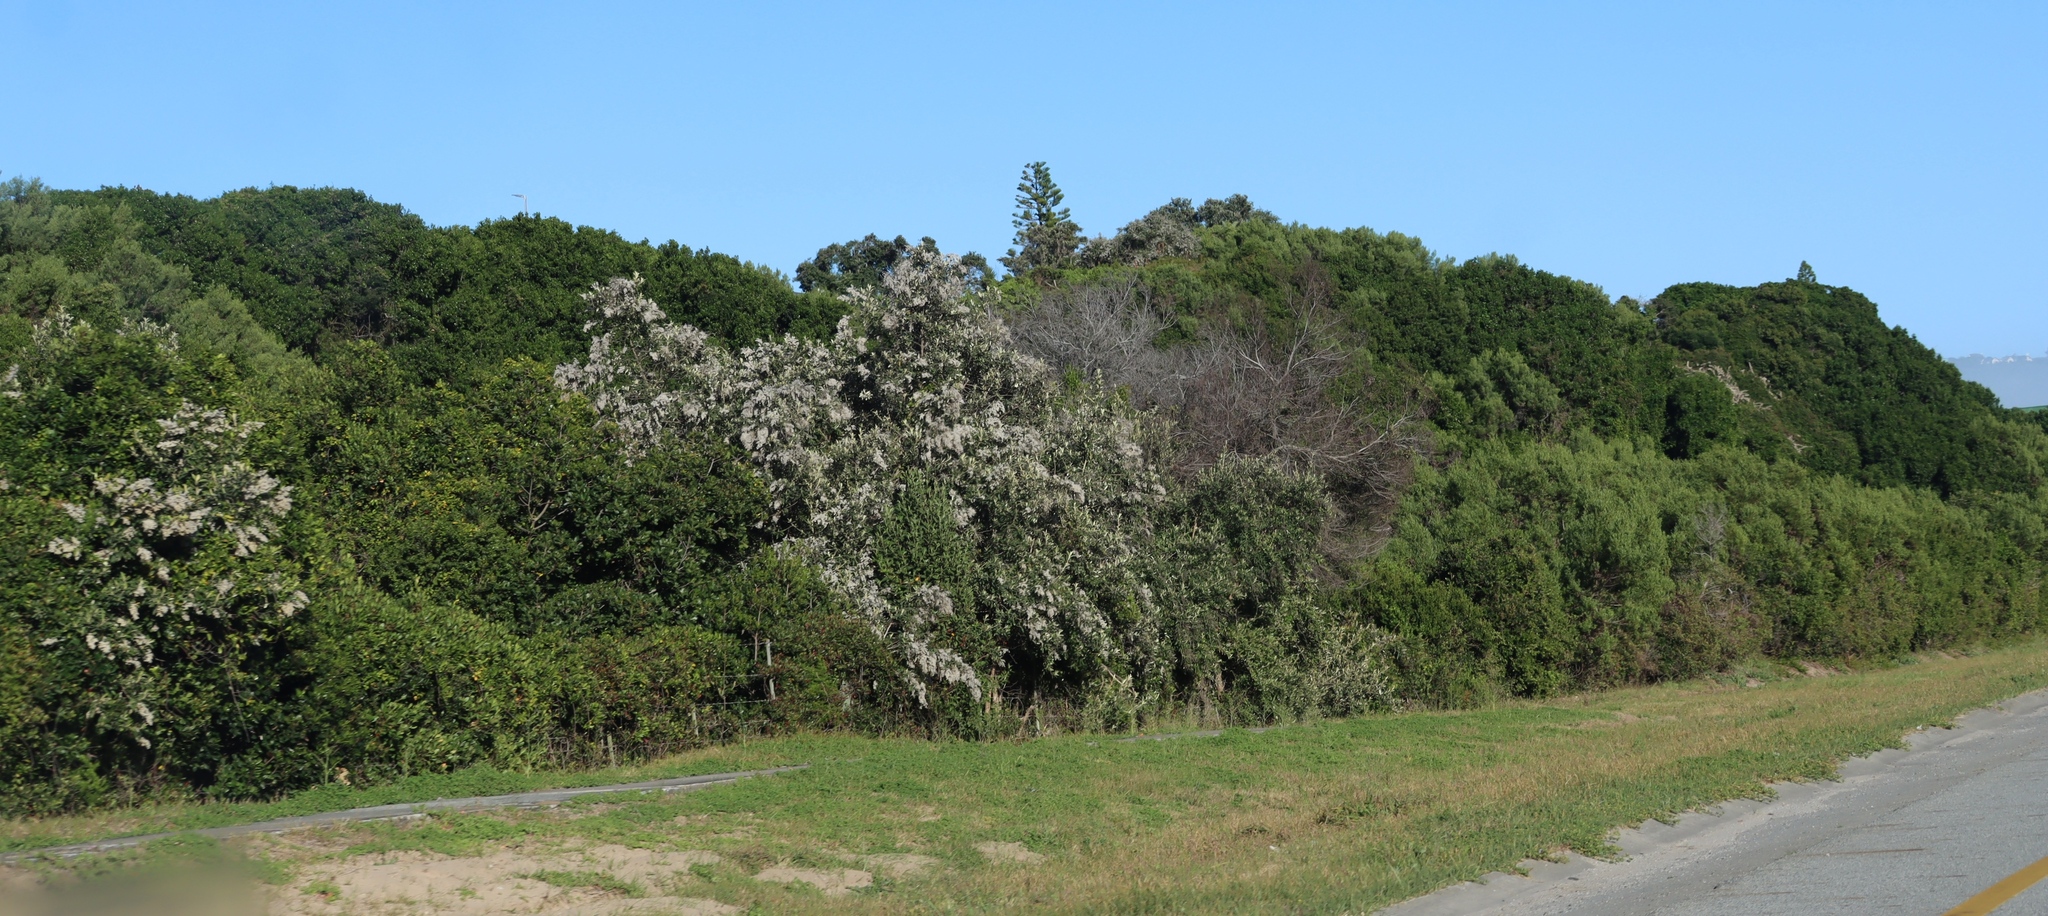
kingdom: Plantae
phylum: Tracheophyta
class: Magnoliopsida
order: Asterales
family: Asteraceae
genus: Tarchonanthus
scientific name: Tarchonanthus littoralis
